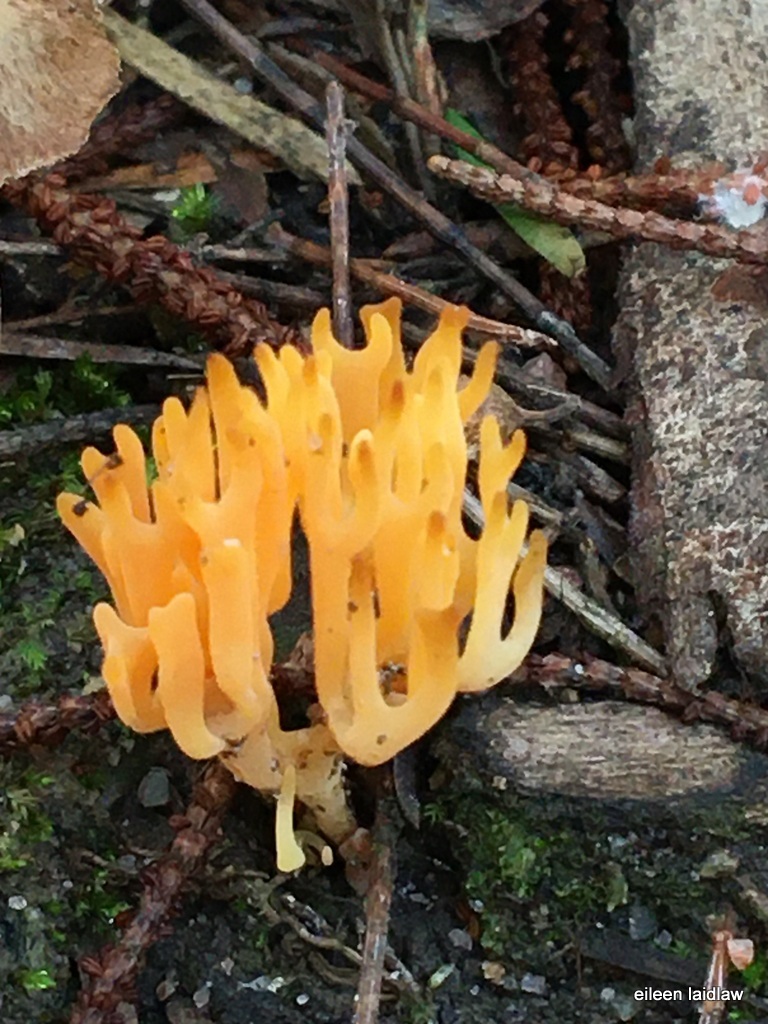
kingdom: Fungi
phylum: Basidiomycota
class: Agaricomycetes
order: Agaricales
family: Clavariaceae
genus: Ramariopsis
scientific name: Ramariopsis crocea
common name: Orange coral
